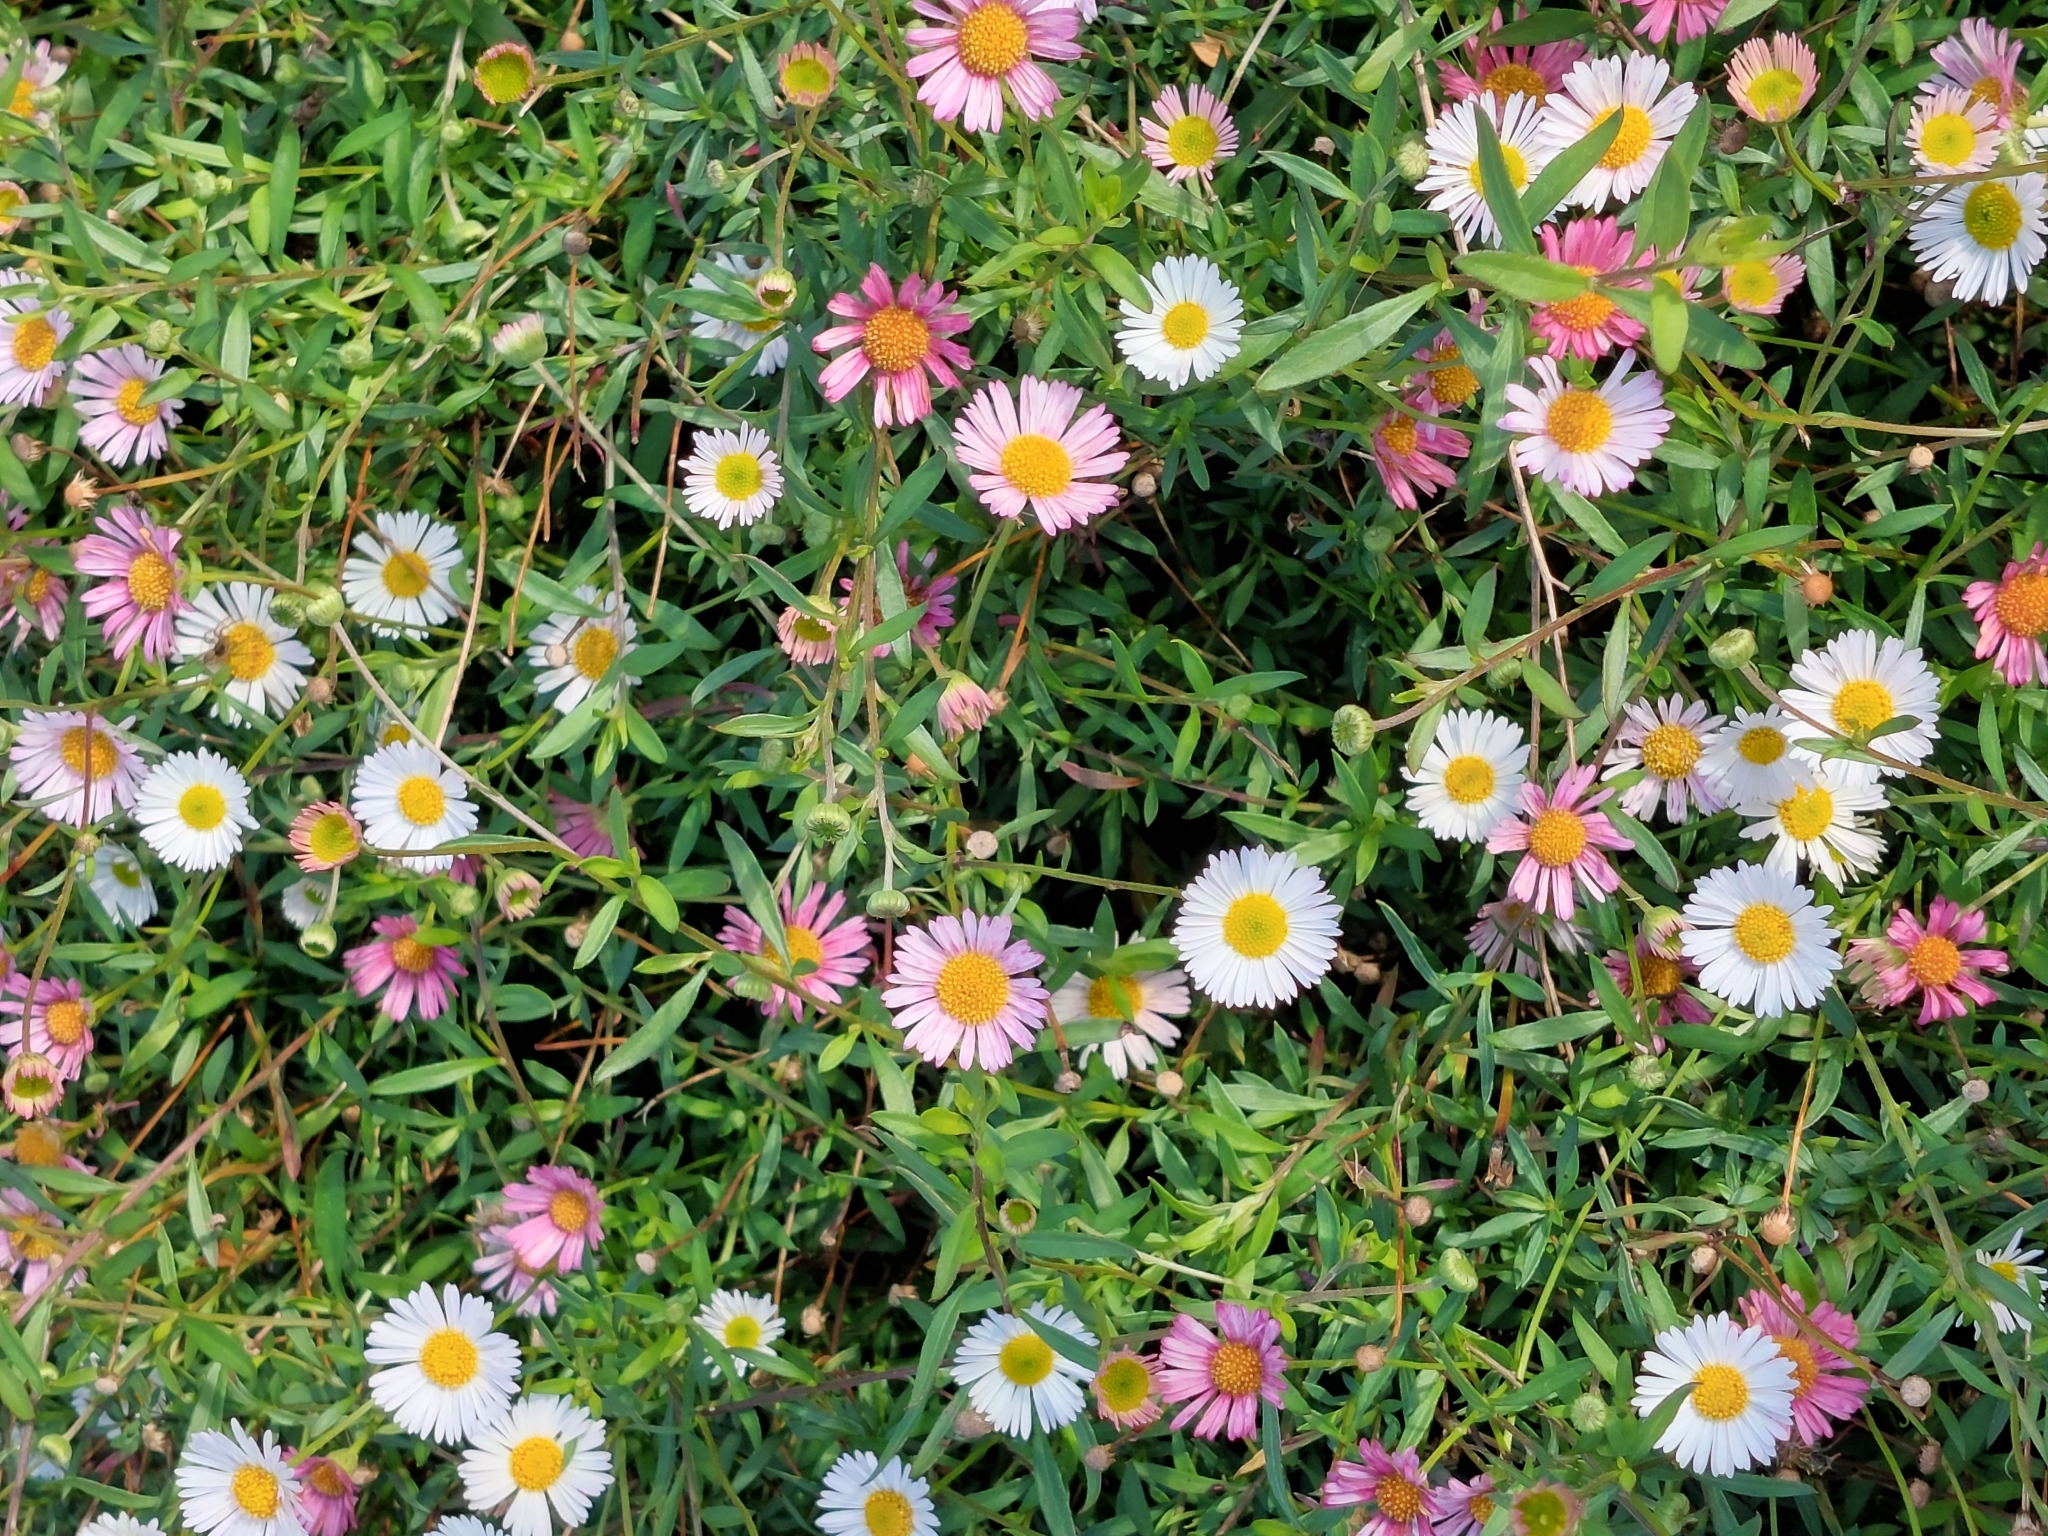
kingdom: Plantae
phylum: Tracheophyta
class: Magnoliopsida
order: Asterales
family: Asteraceae
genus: Erigeron
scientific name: Erigeron karvinskianus
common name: Mexican fleabane
